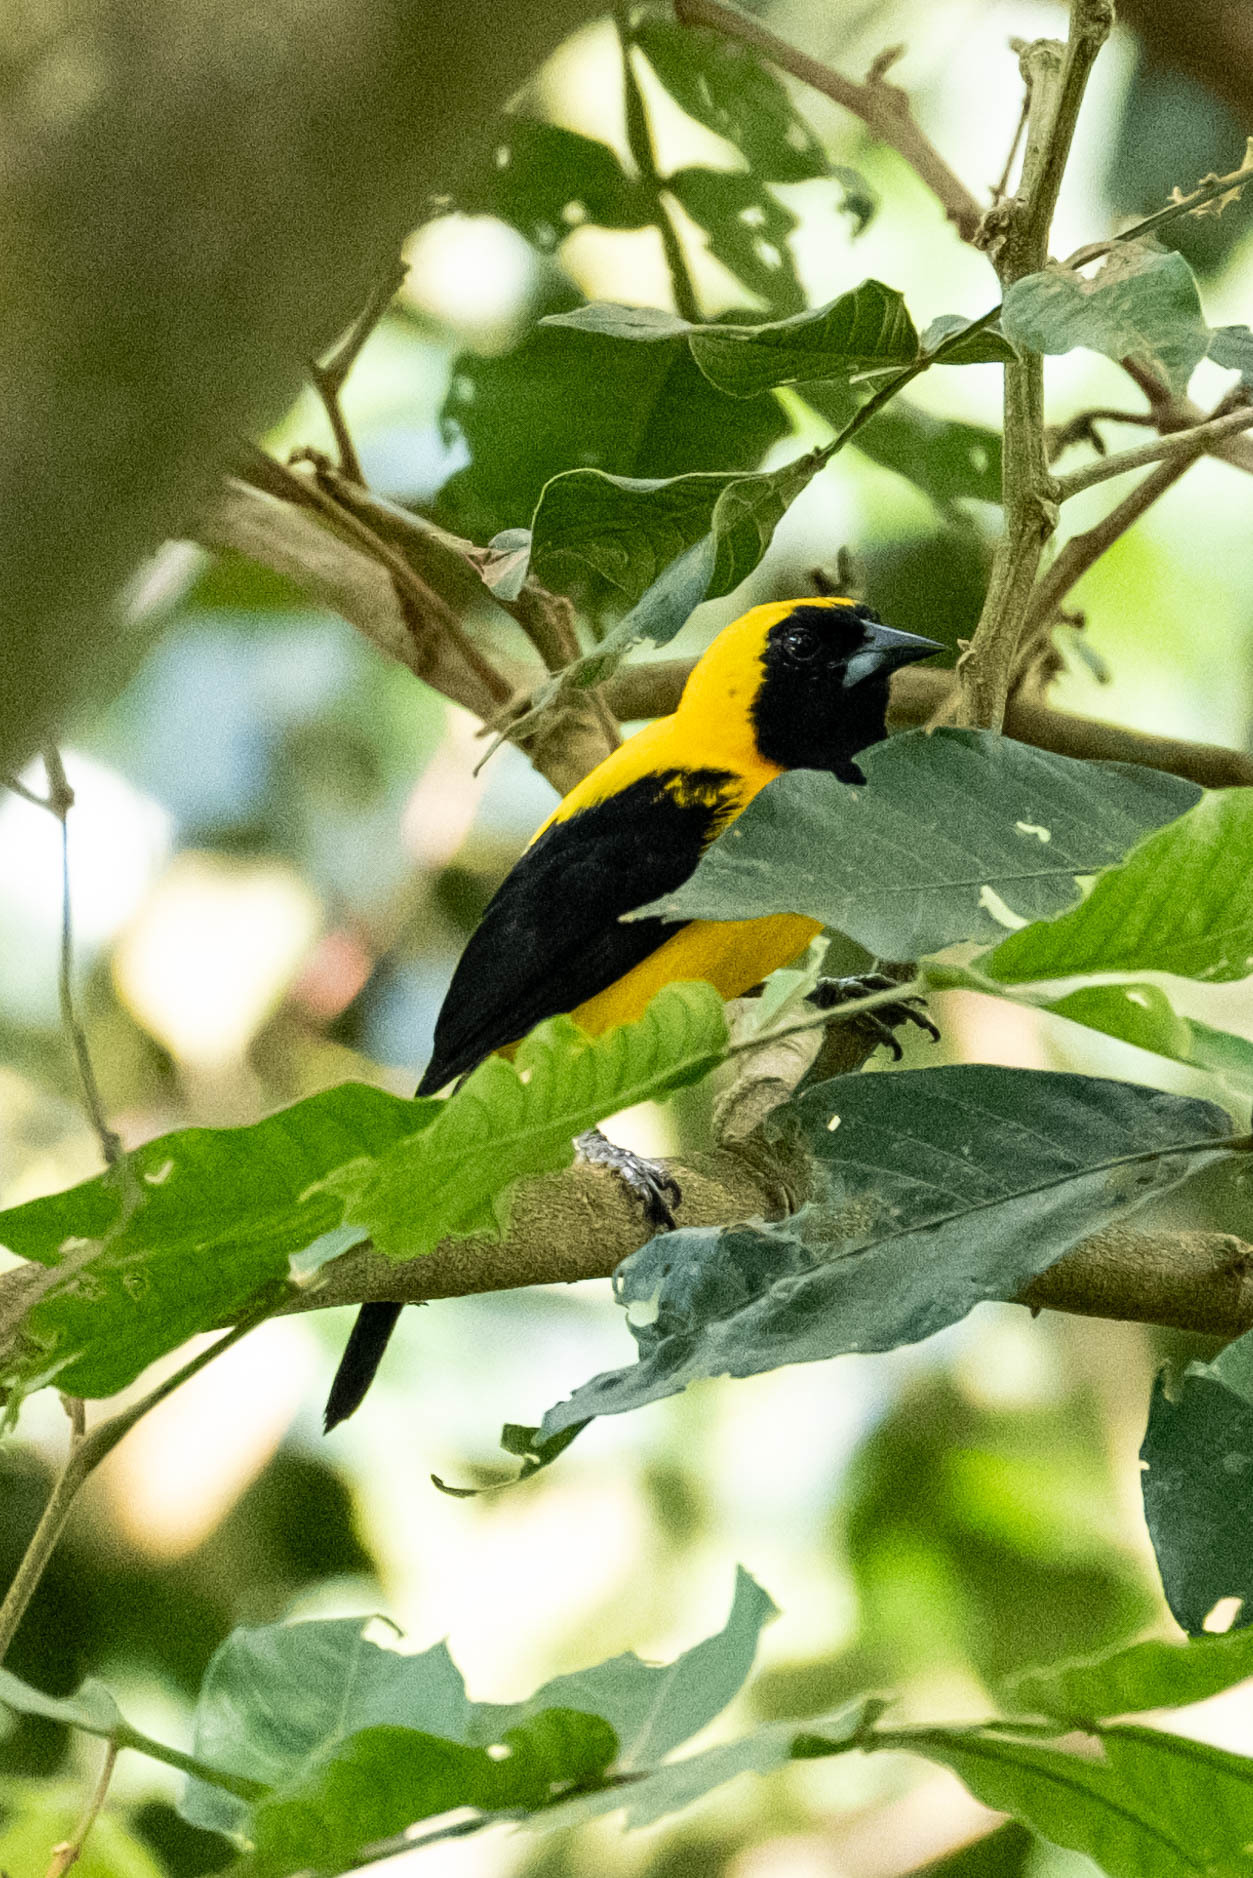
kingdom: Animalia
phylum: Chordata
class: Aves
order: Passeriformes
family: Icteridae
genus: Icterus
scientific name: Icterus chrysater
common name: Yellow-backed oriole
